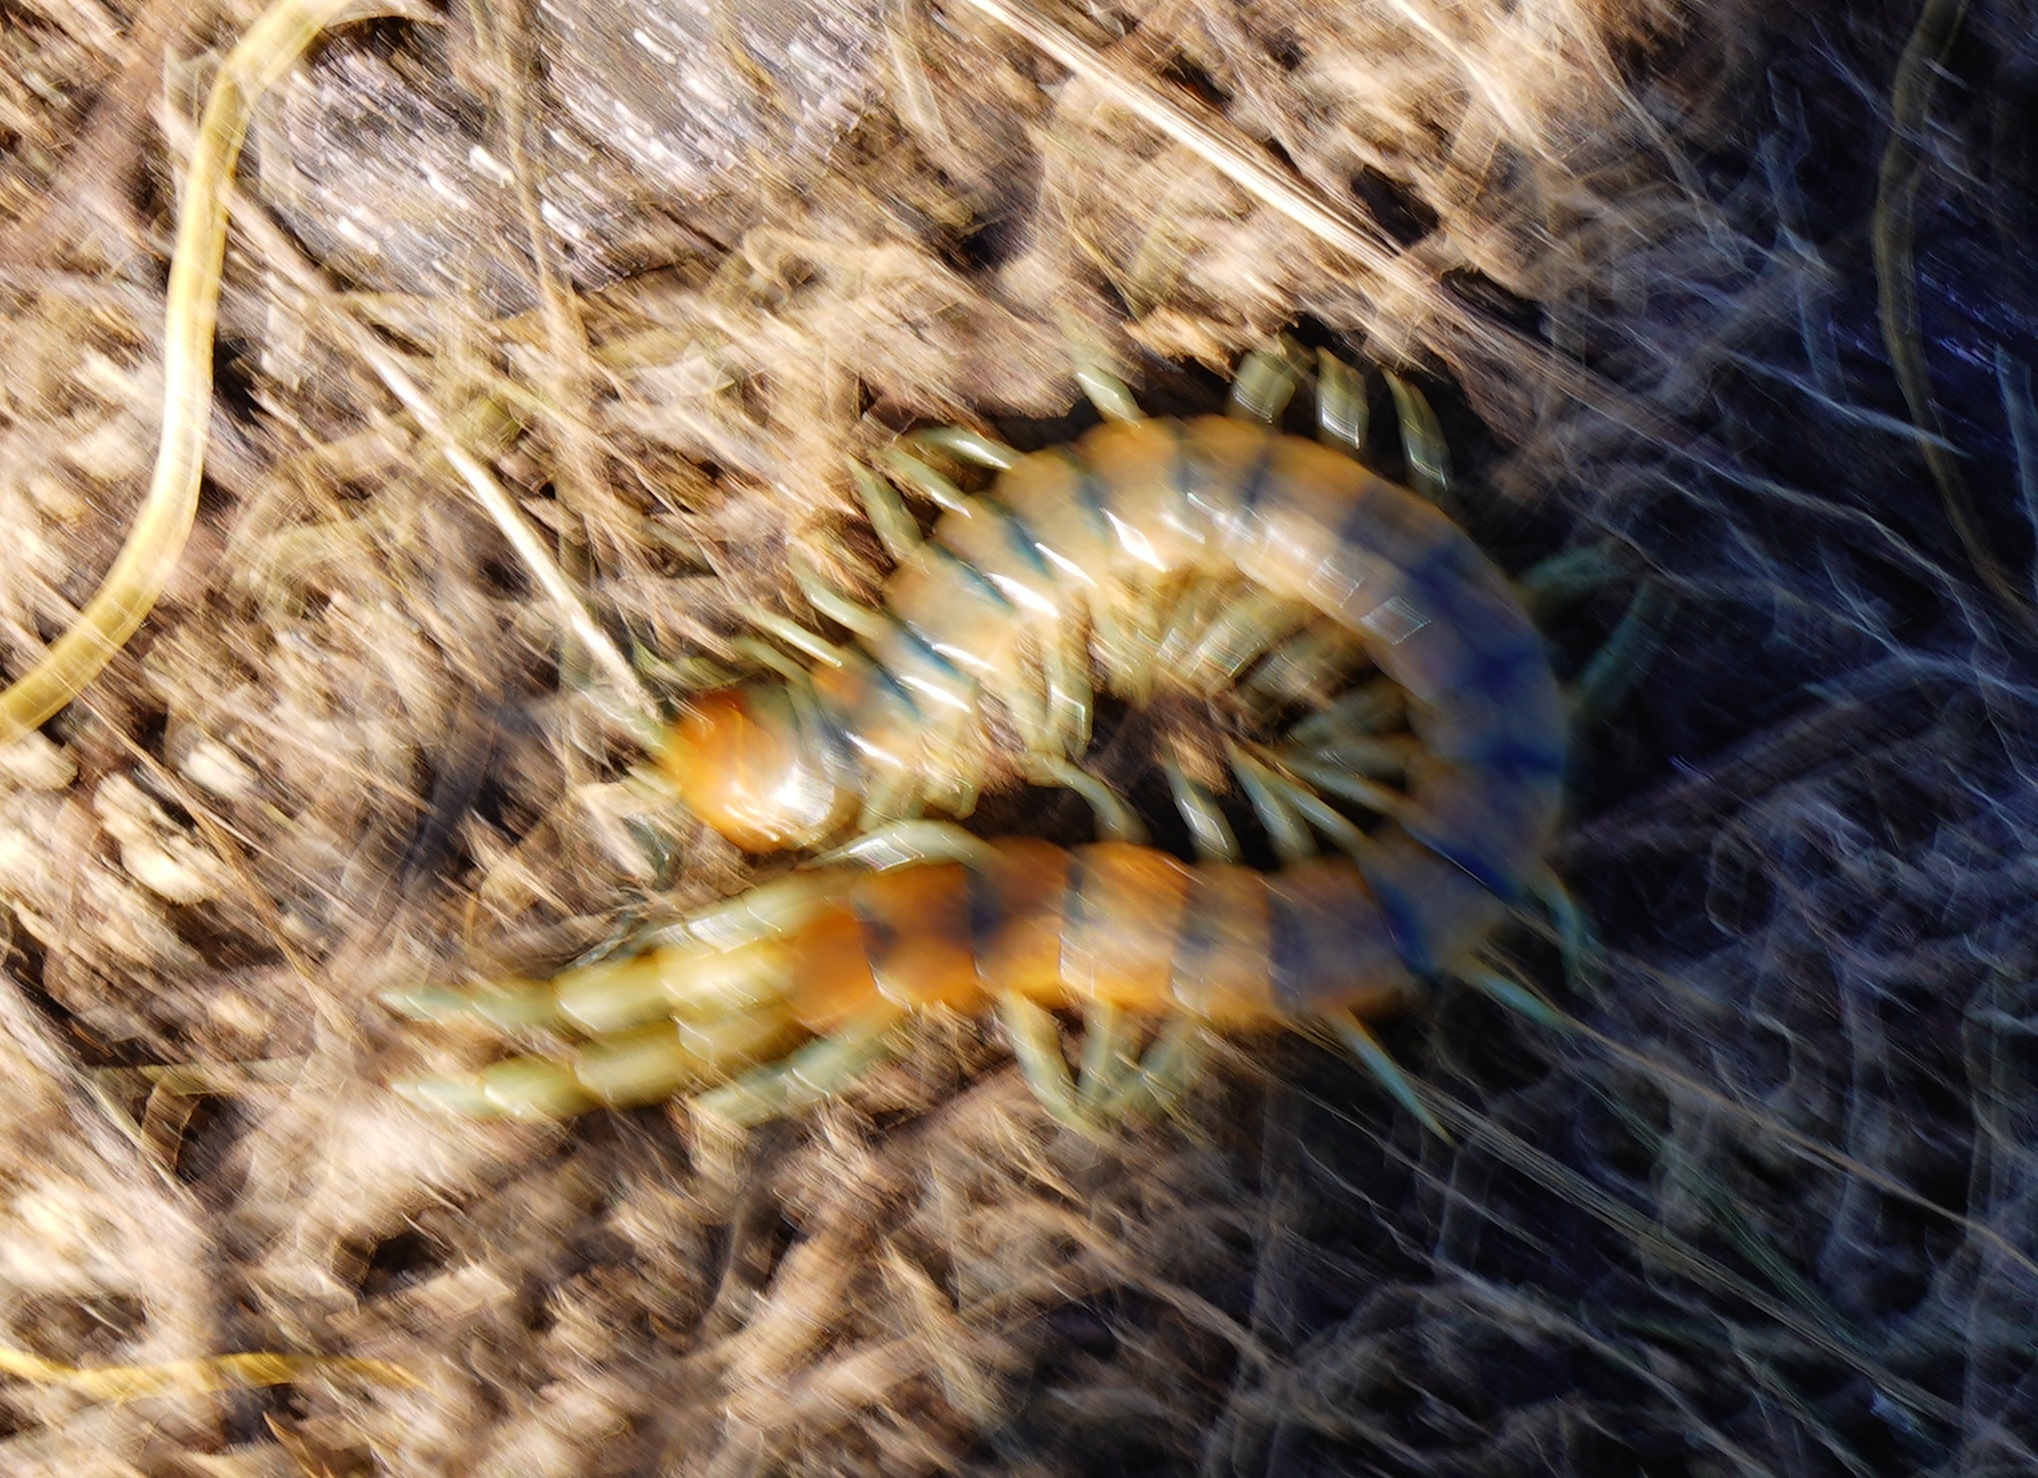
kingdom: Animalia
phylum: Arthropoda
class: Chilopoda
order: Scolopendromorpha
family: Scolopendridae
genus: Scolopendra
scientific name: Scolopendra polymorpha
